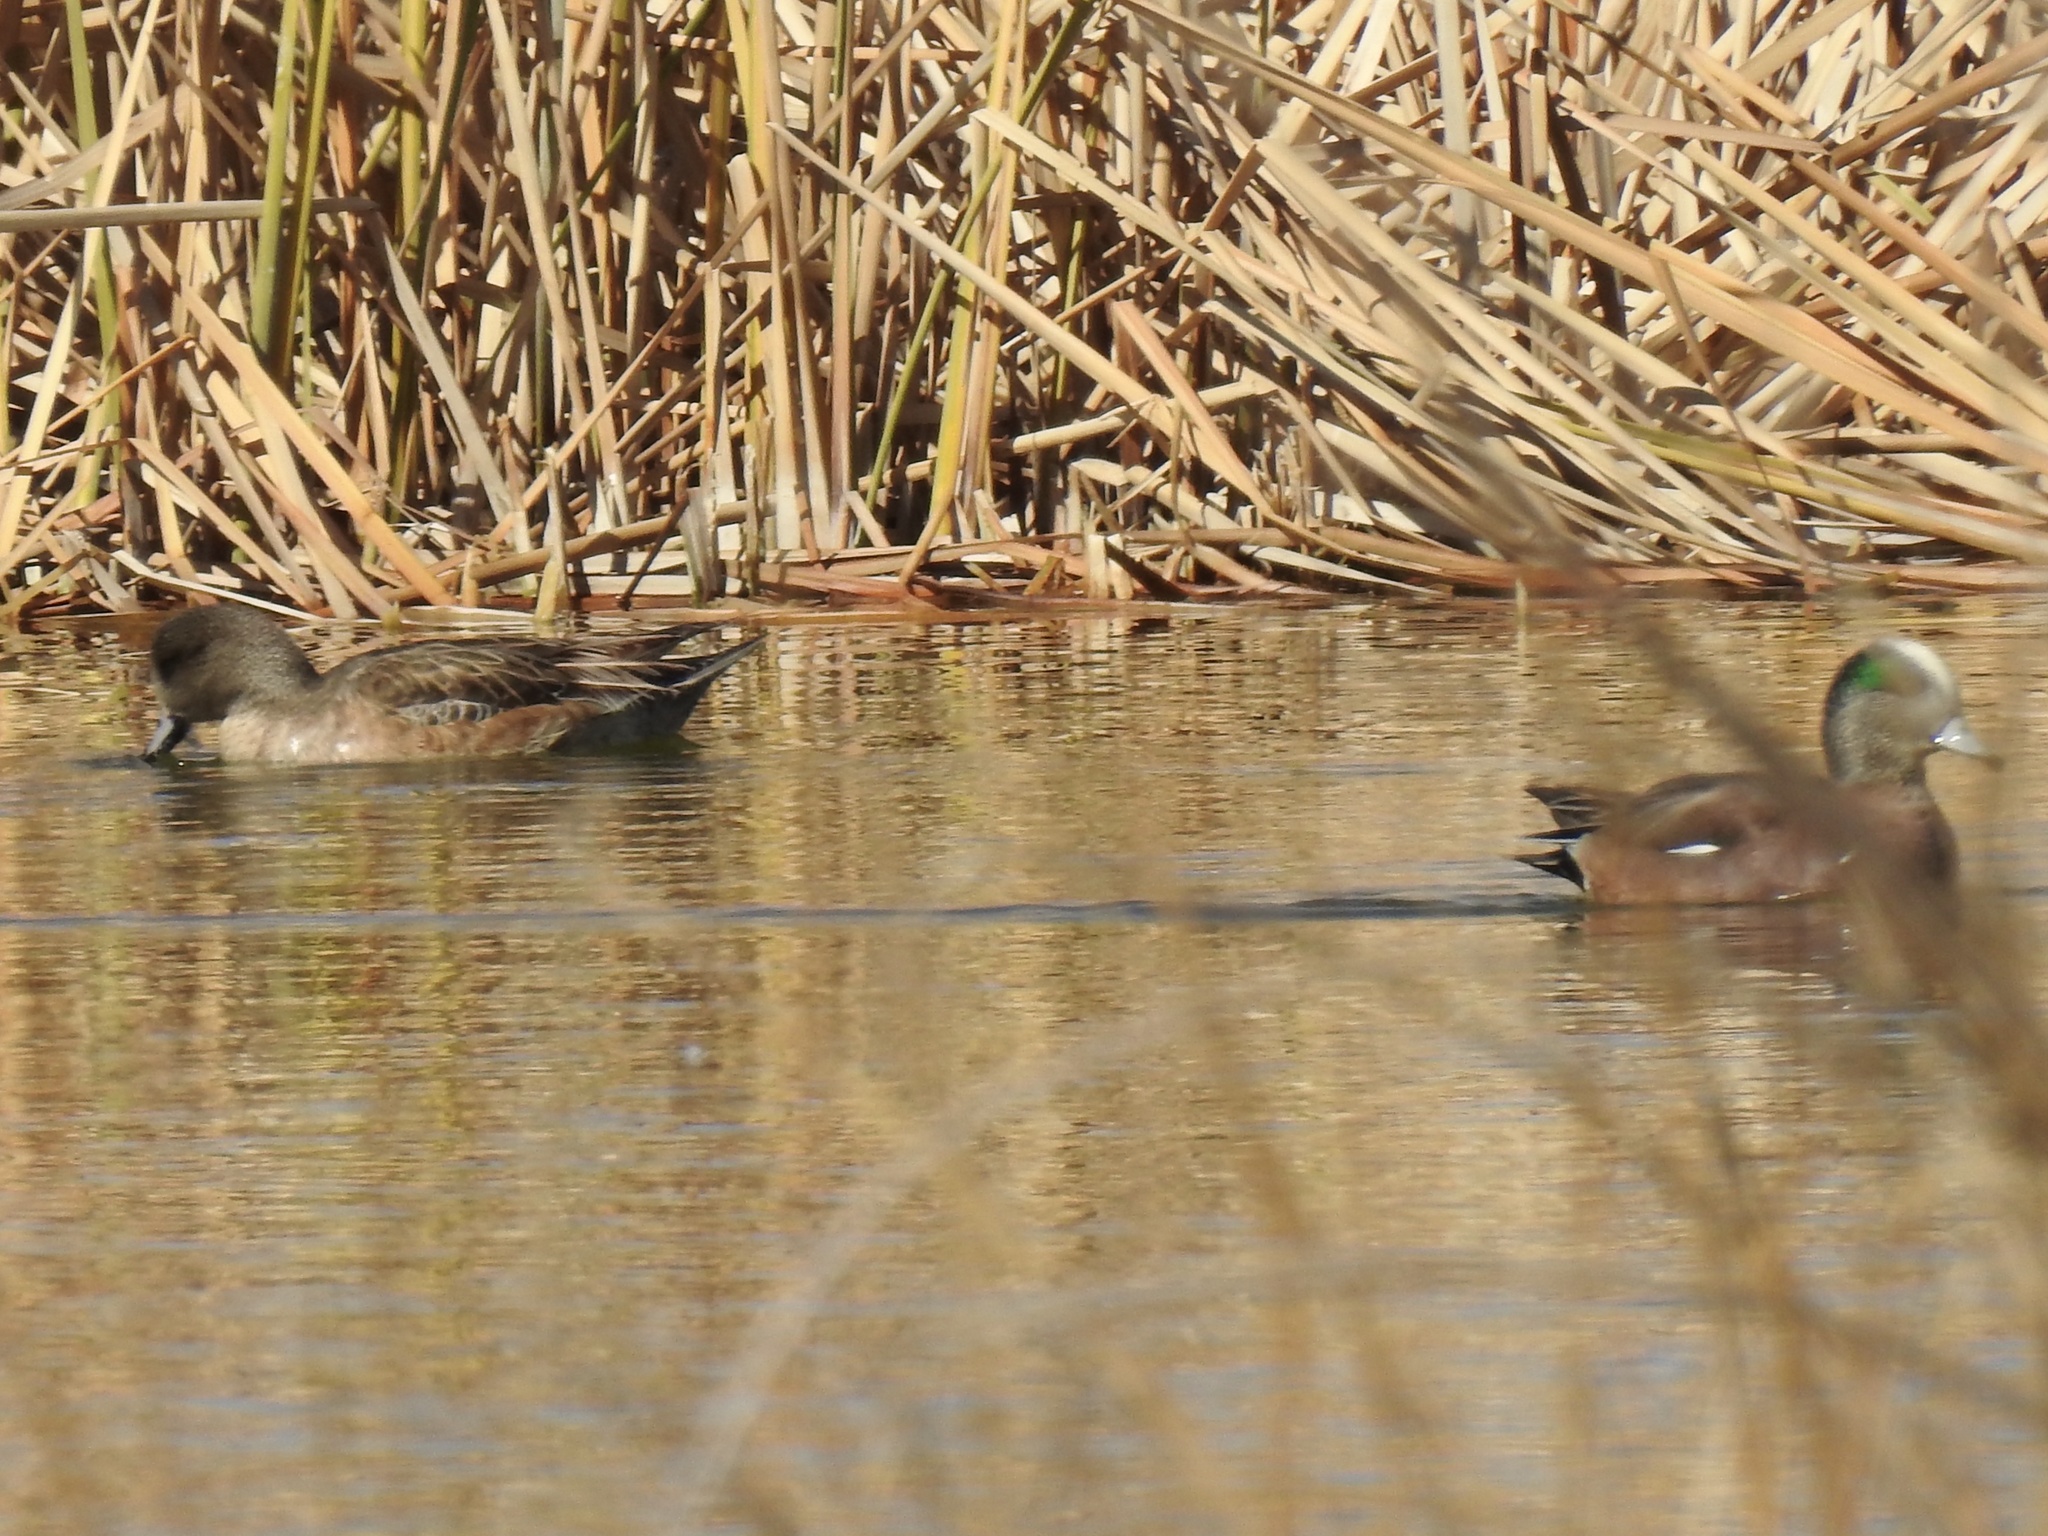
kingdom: Animalia
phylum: Chordata
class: Aves
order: Anseriformes
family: Anatidae
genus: Mareca
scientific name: Mareca americana
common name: American wigeon
